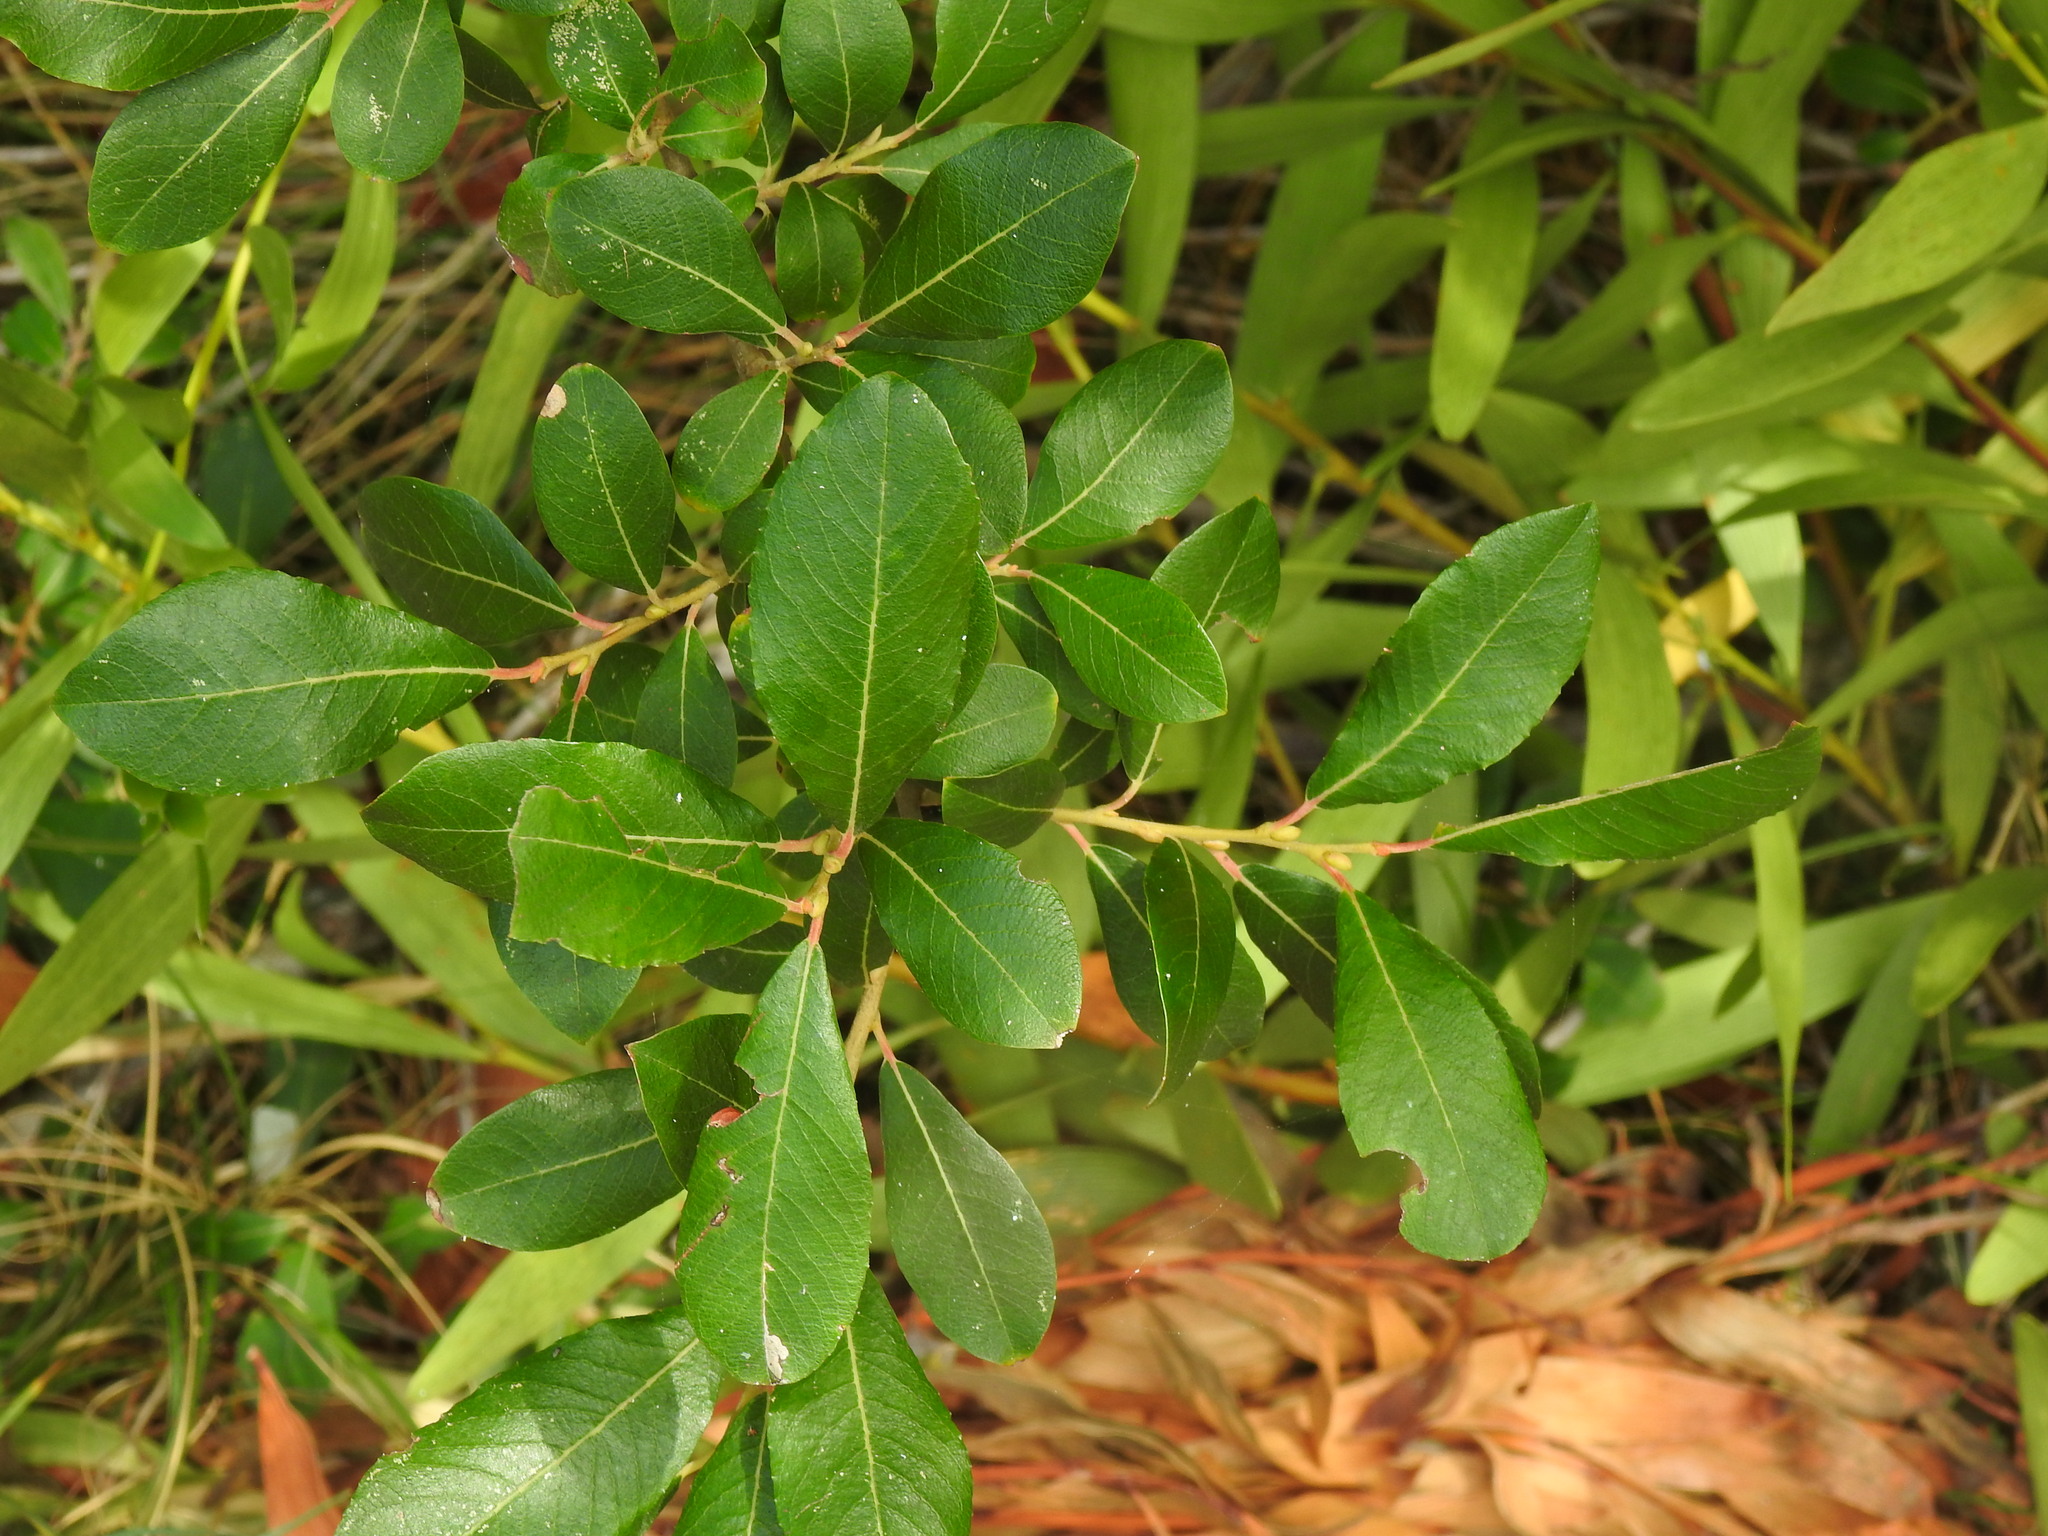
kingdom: Plantae
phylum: Tracheophyta
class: Magnoliopsida
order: Malpighiales
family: Salicaceae
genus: Salix
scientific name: Salix atrocinerea
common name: Rusty willow
